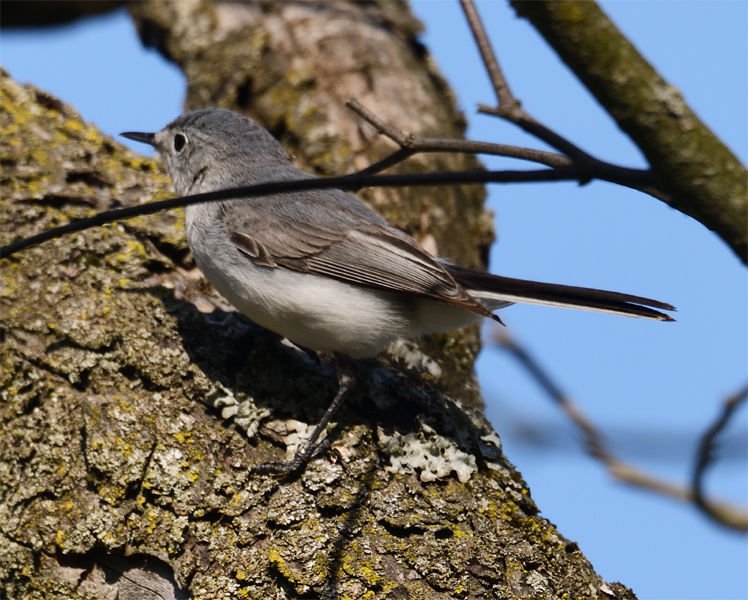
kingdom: Animalia
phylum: Chordata
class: Aves
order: Passeriformes
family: Polioptilidae
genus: Polioptila
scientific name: Polioptila caerulea
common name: Blue-gray gnatcatcher
